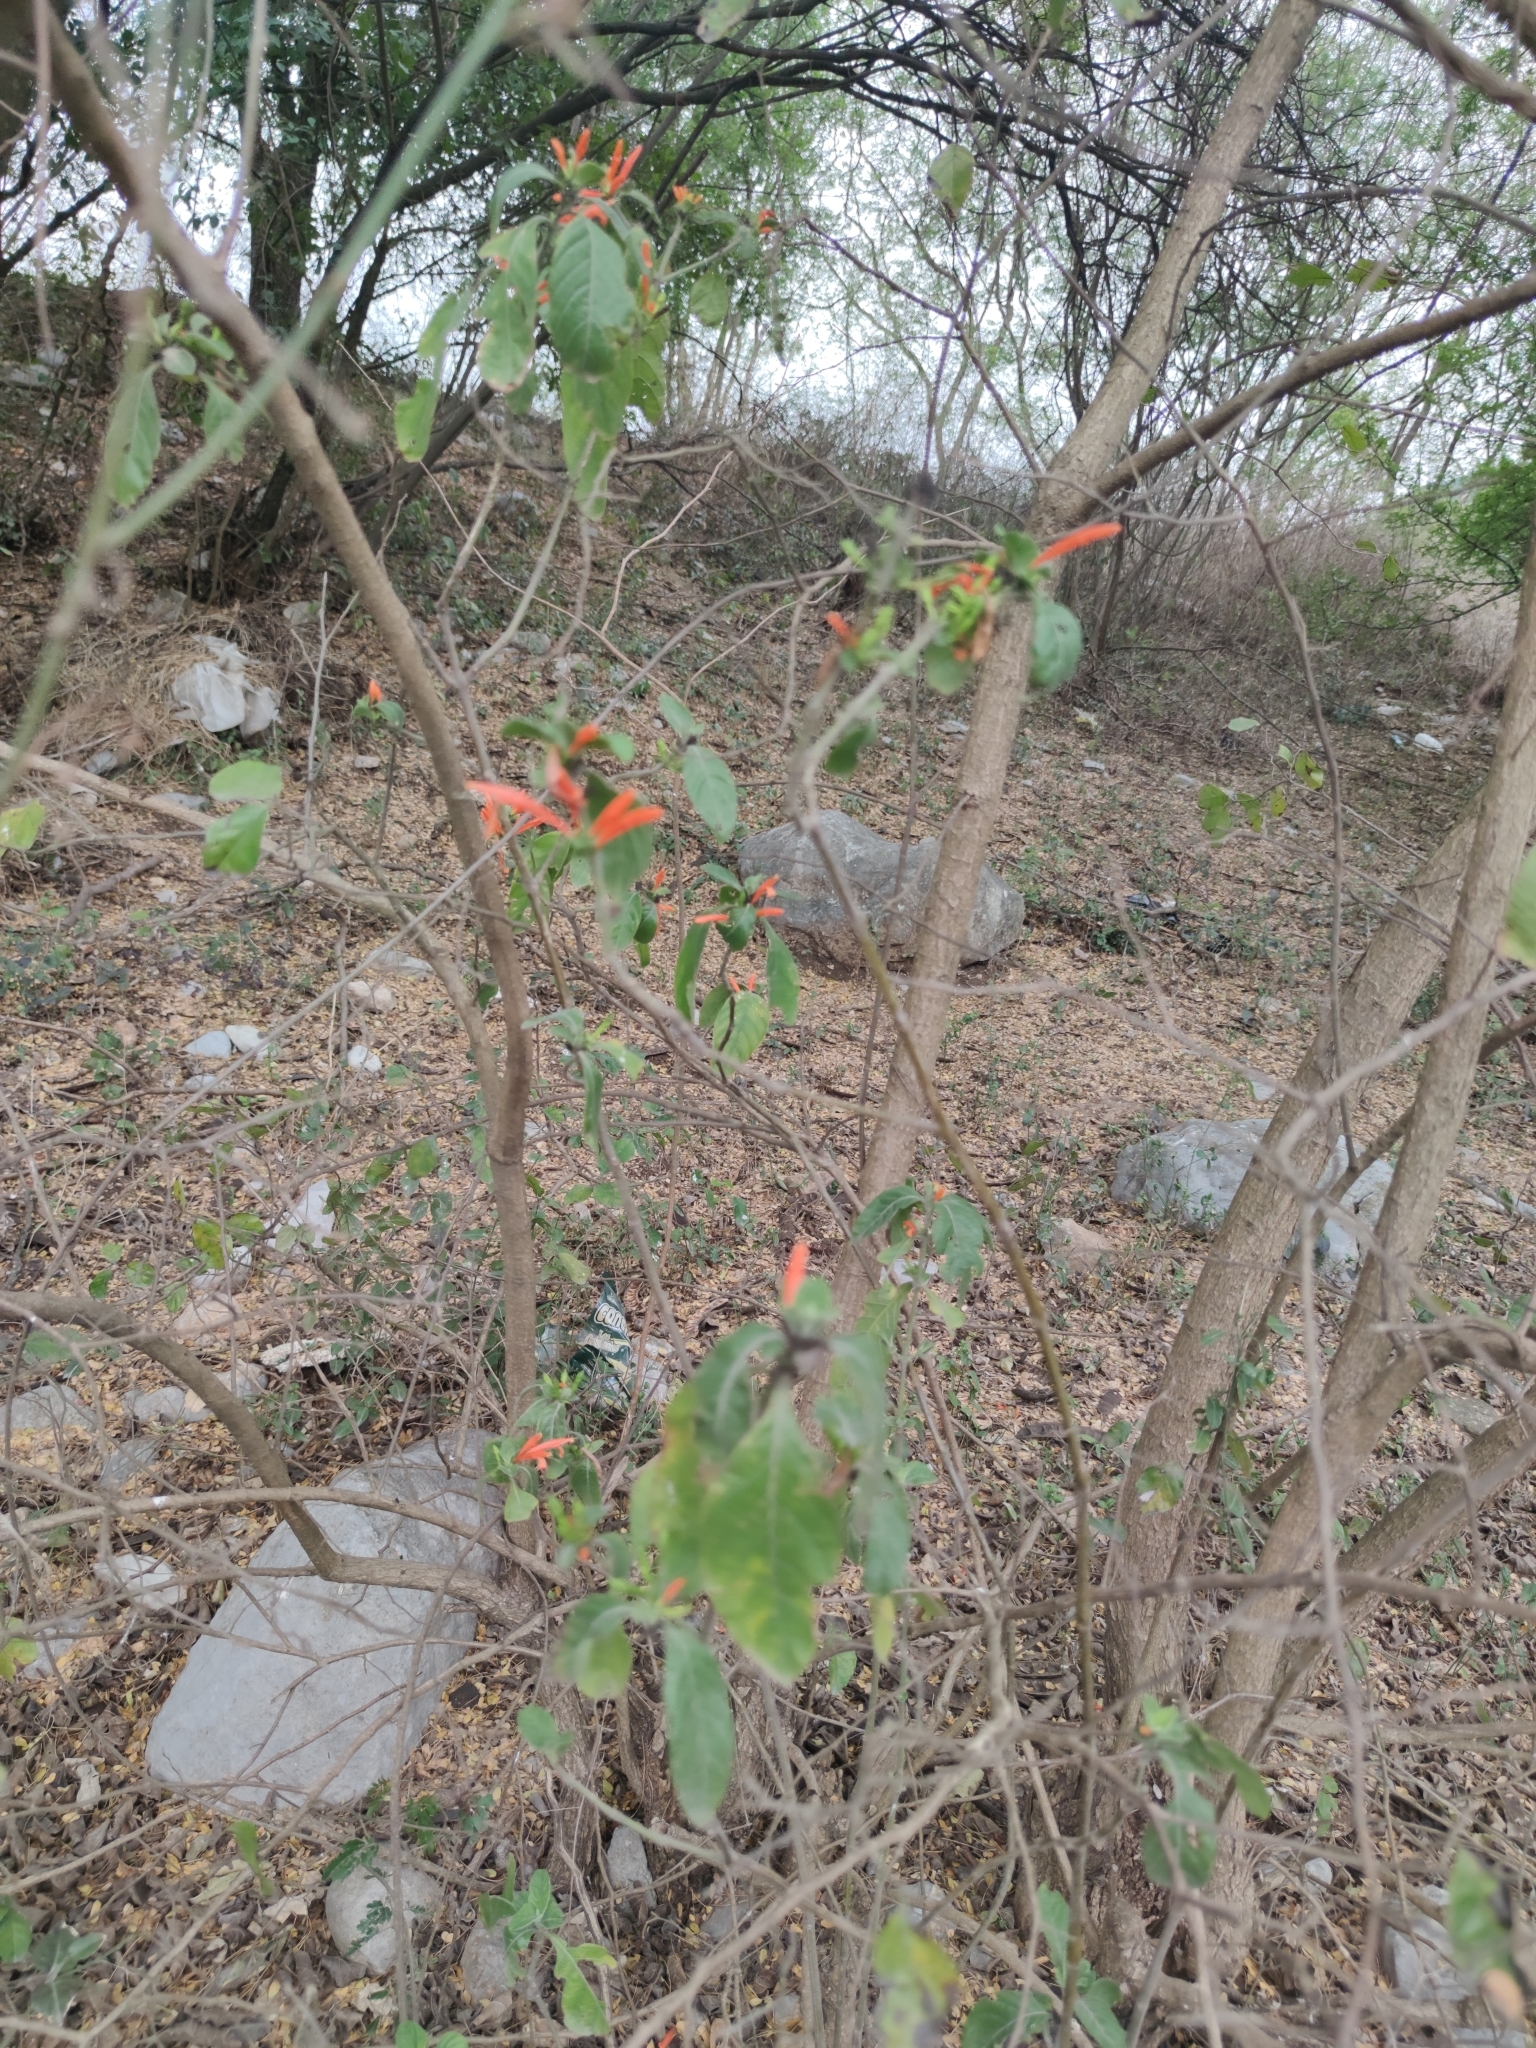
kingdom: Plantae
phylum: Tracheophyta
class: Magnoliopsida
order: Lamiales
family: Acanthaceae
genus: Justicia
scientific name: Justicia spicigera
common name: Mohintli
